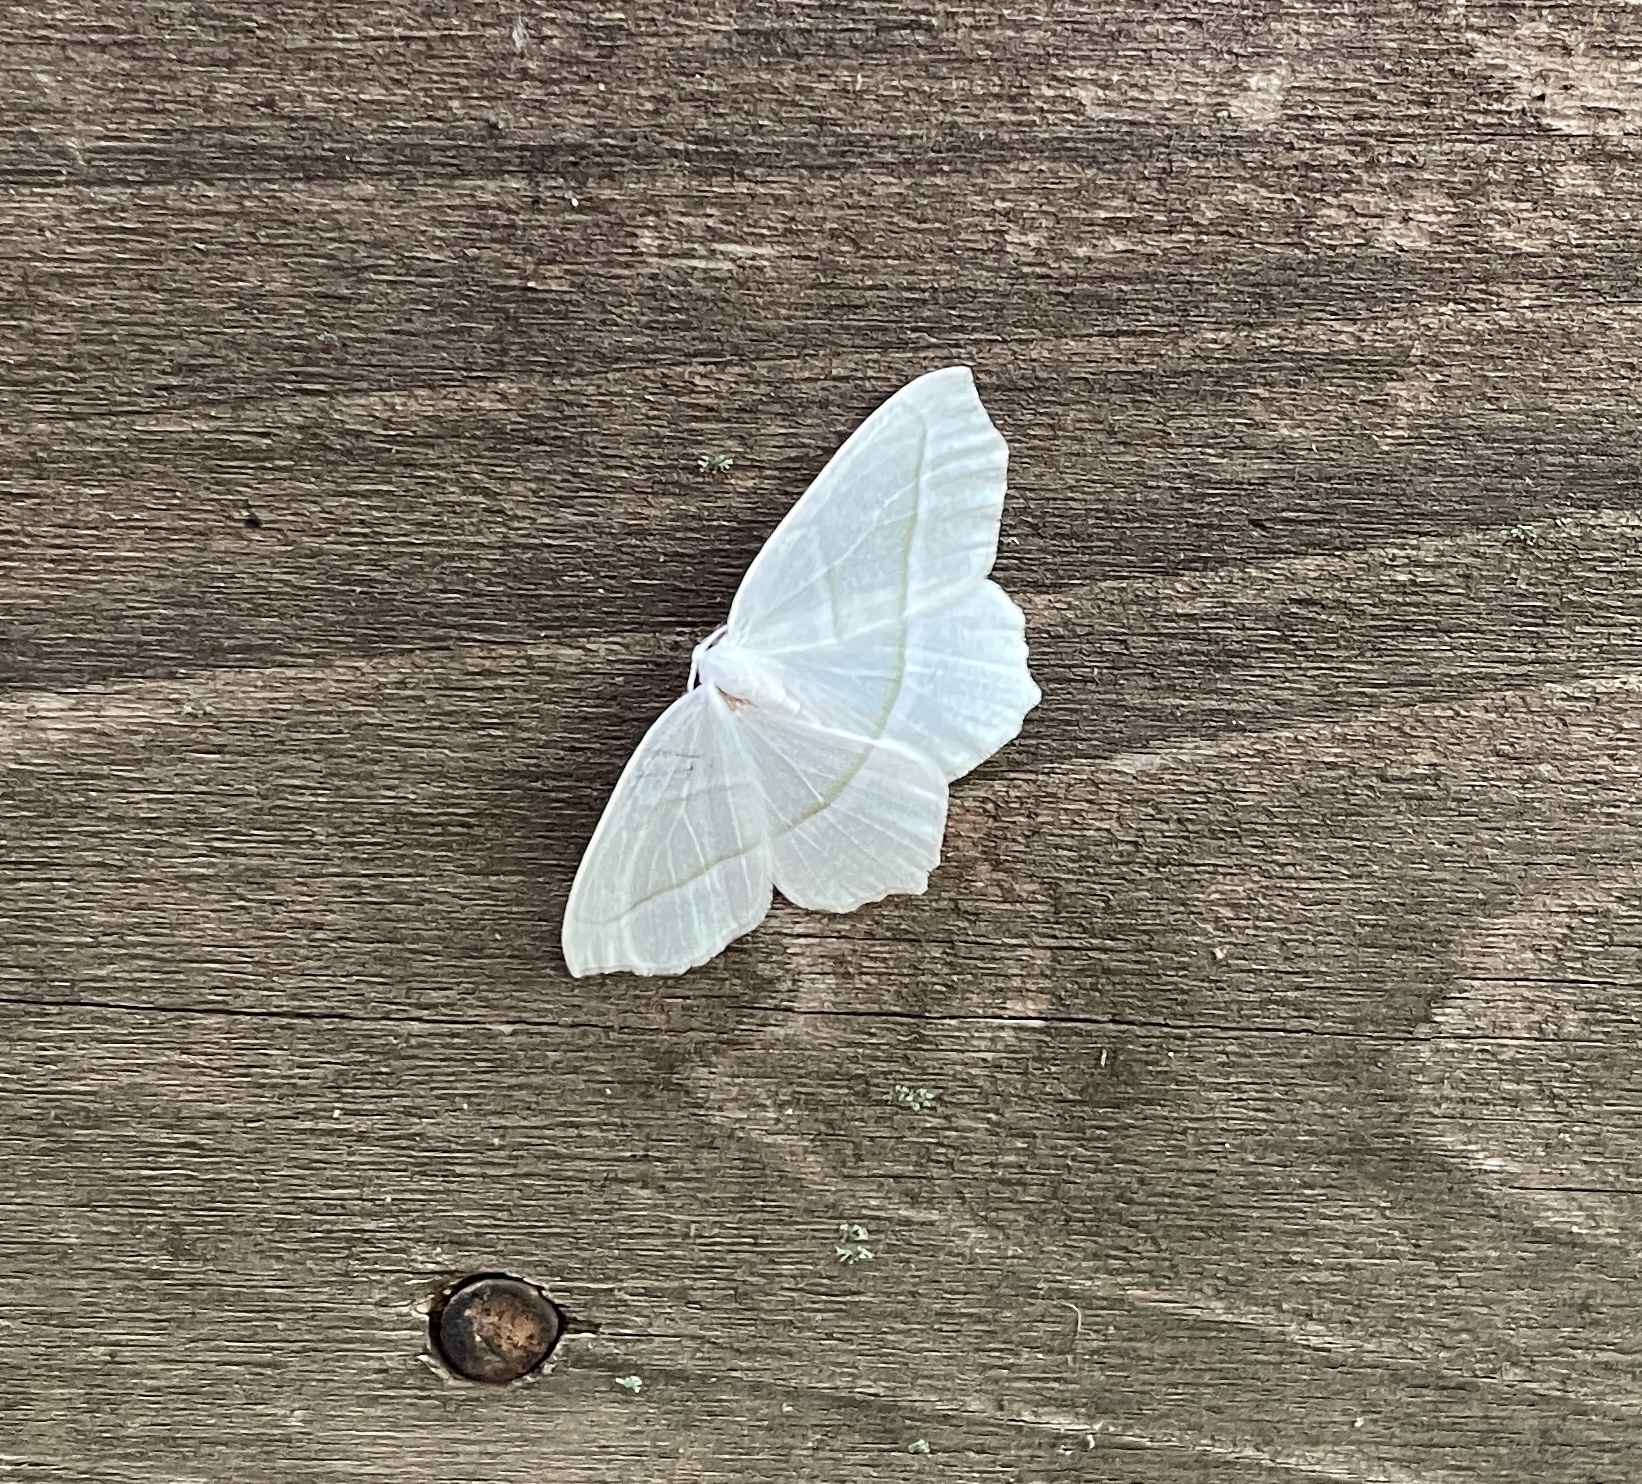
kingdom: Animalia
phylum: Arthropoda
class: Insecta
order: Lepidoptera
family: Geometridae
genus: Campaea
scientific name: Campaea perlata
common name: Fringed looper
